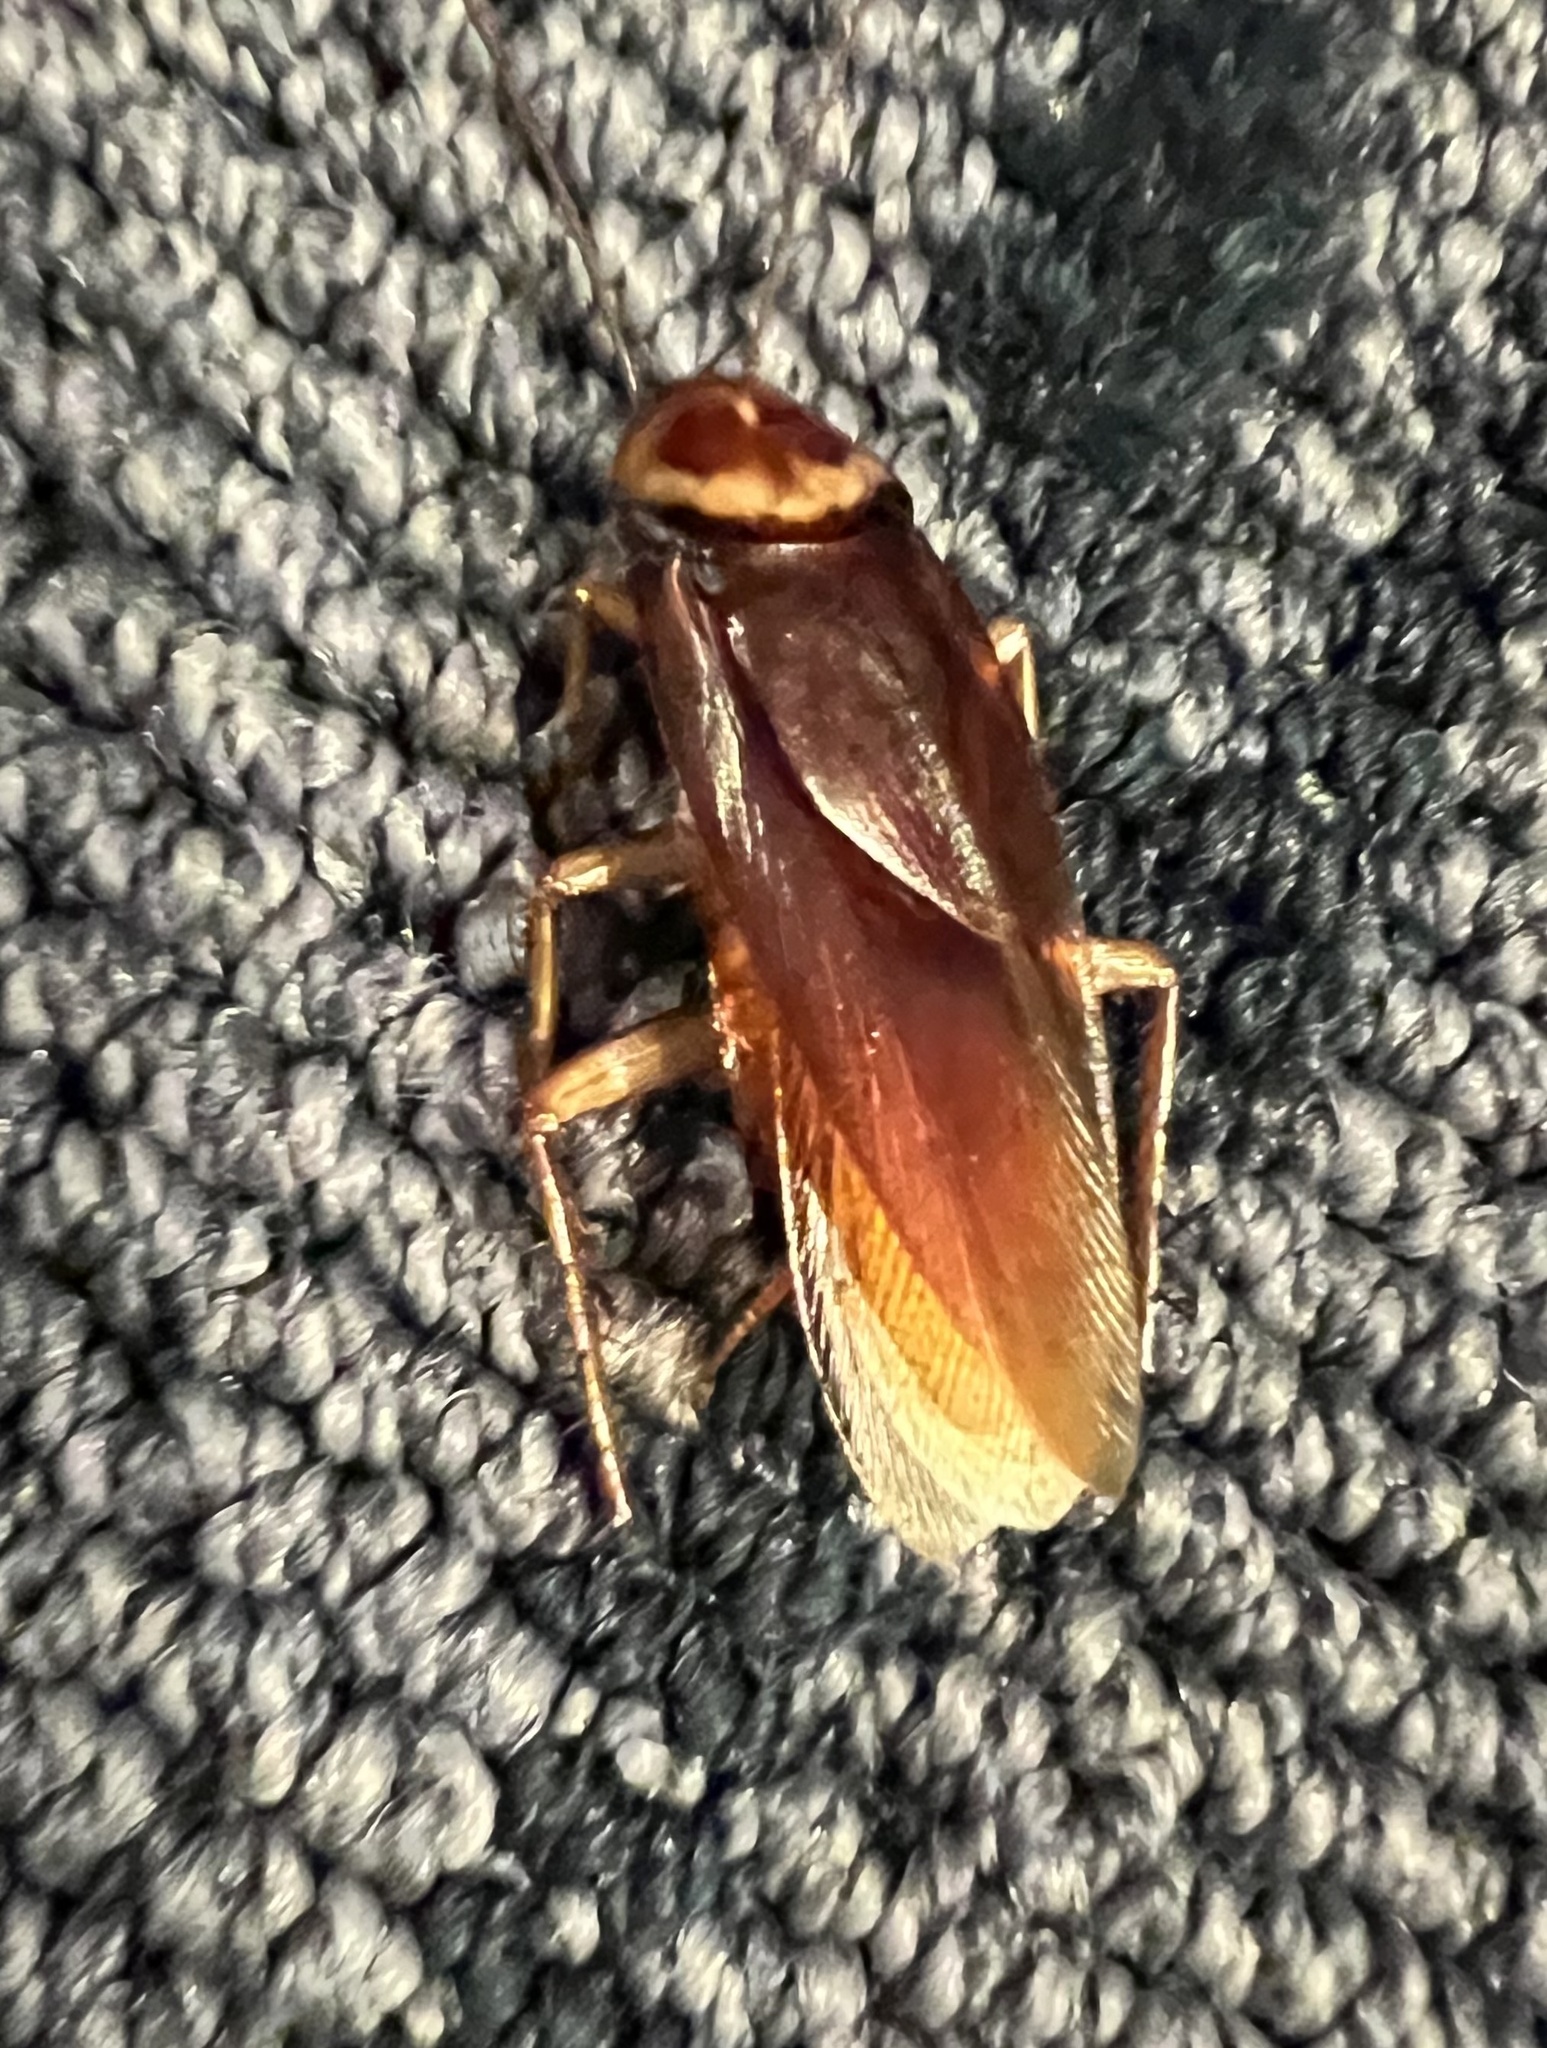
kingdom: Animalia
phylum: Arthropoda
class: Insecta
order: Blattodea
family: Blattidae
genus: Periplaneta
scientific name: Periplaneta americana
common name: American cockroach
